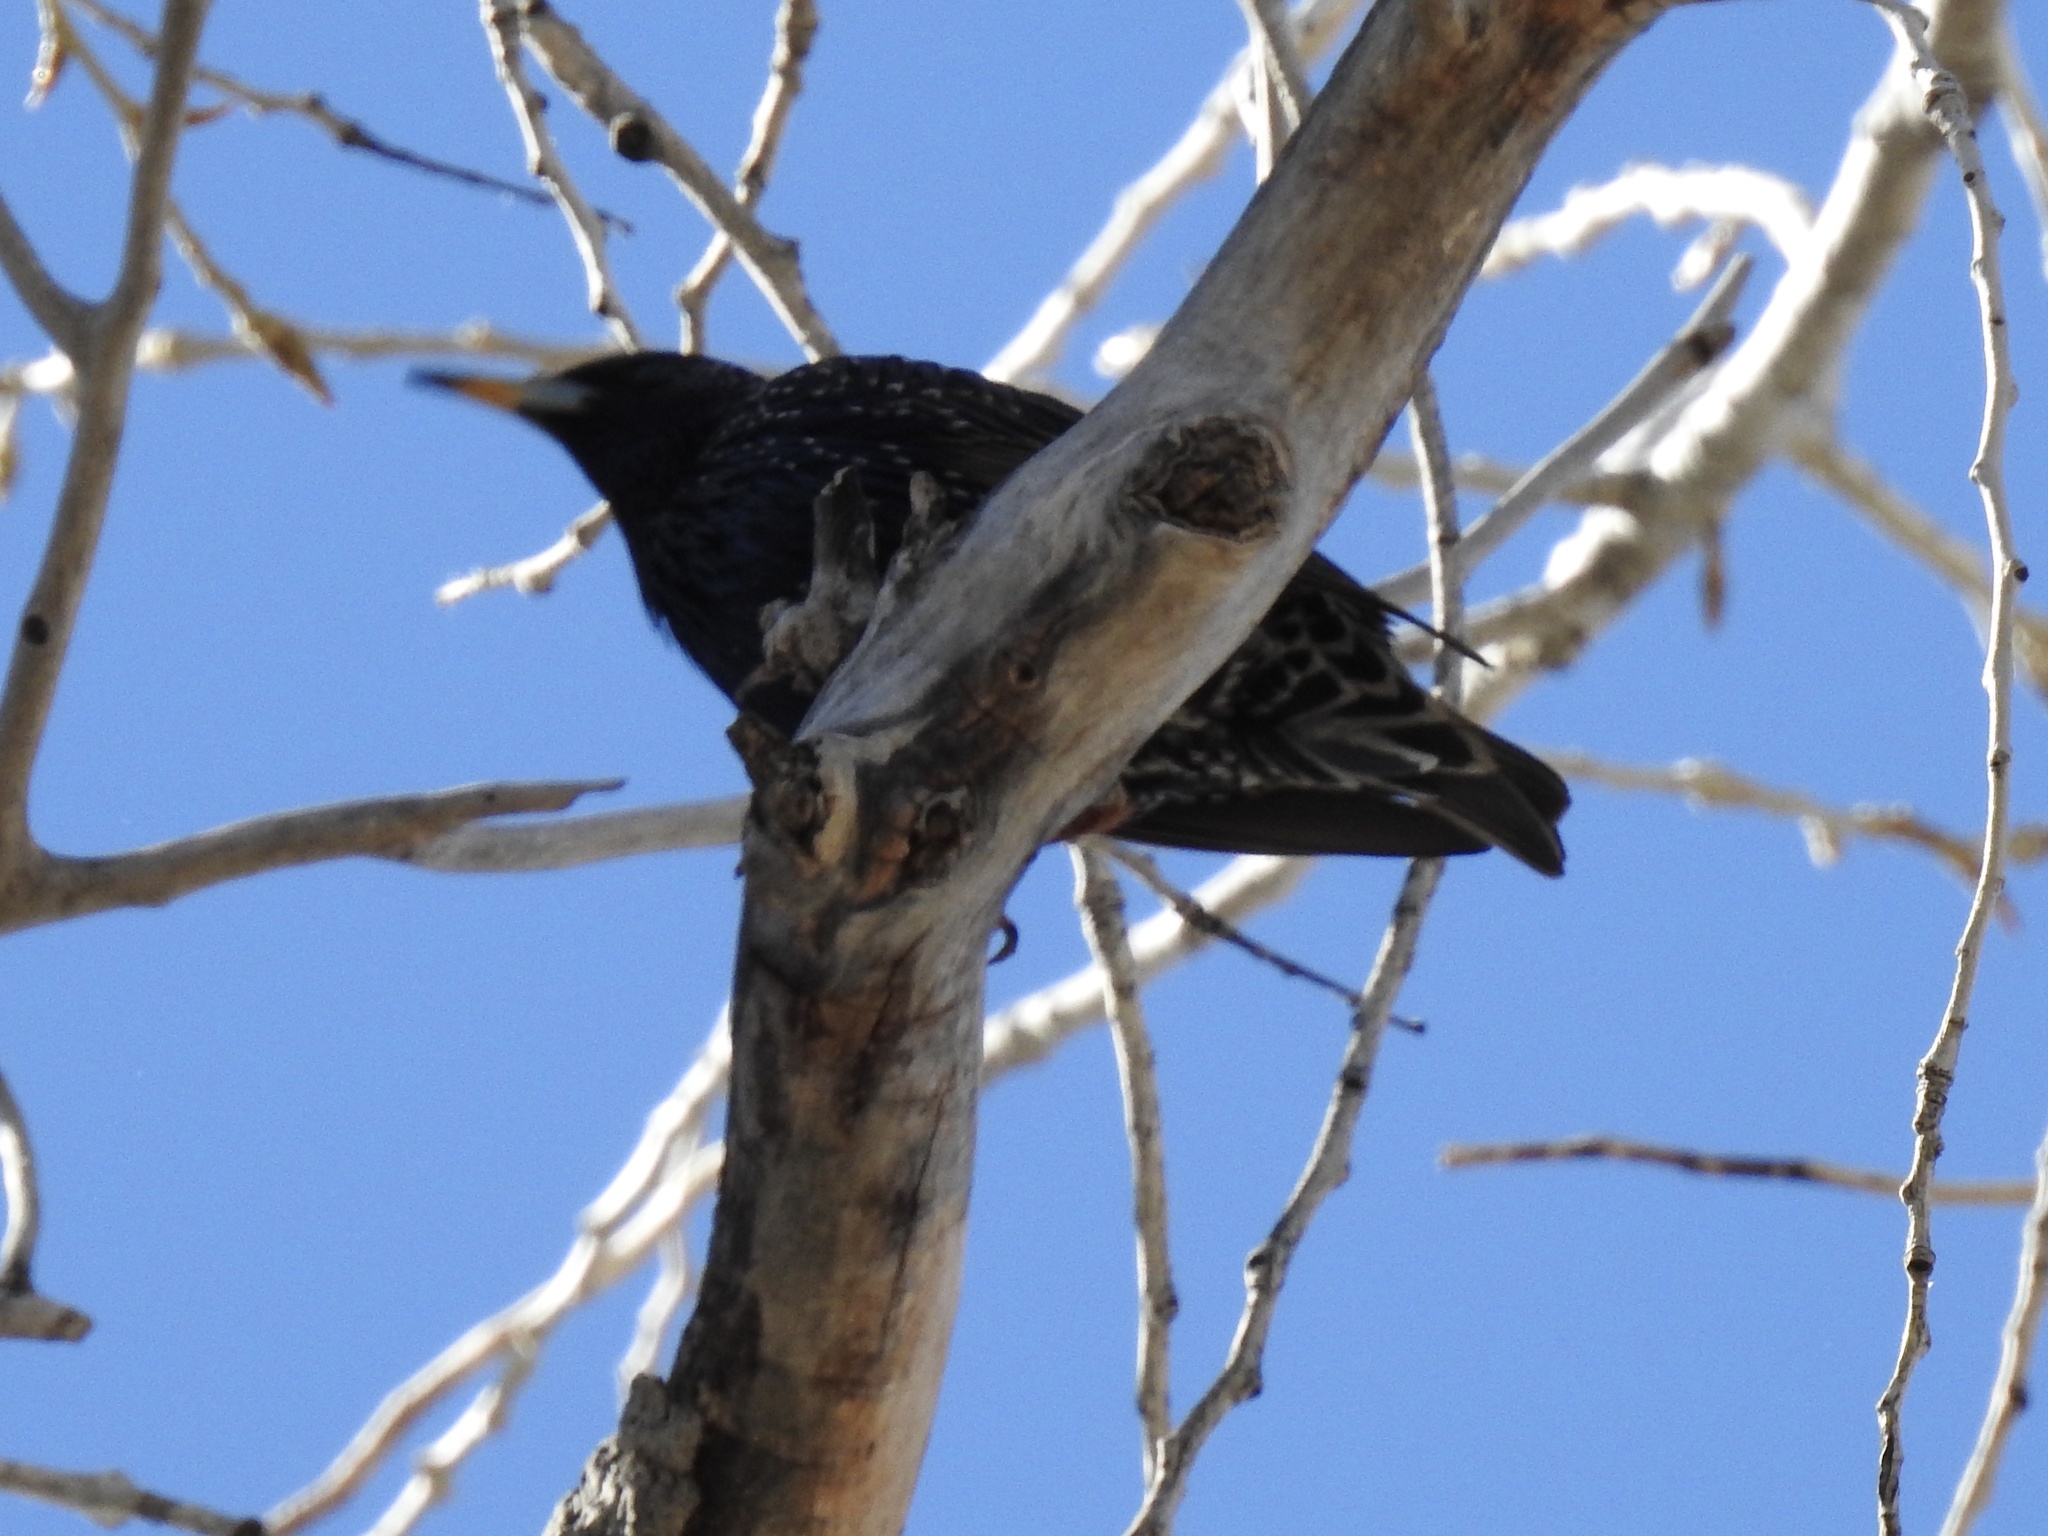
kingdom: Animalia
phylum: Chordata
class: Aves
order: Passeriformes
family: Sturnidae
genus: Sturnus
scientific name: Sturnus vulgaris
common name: Common starling
